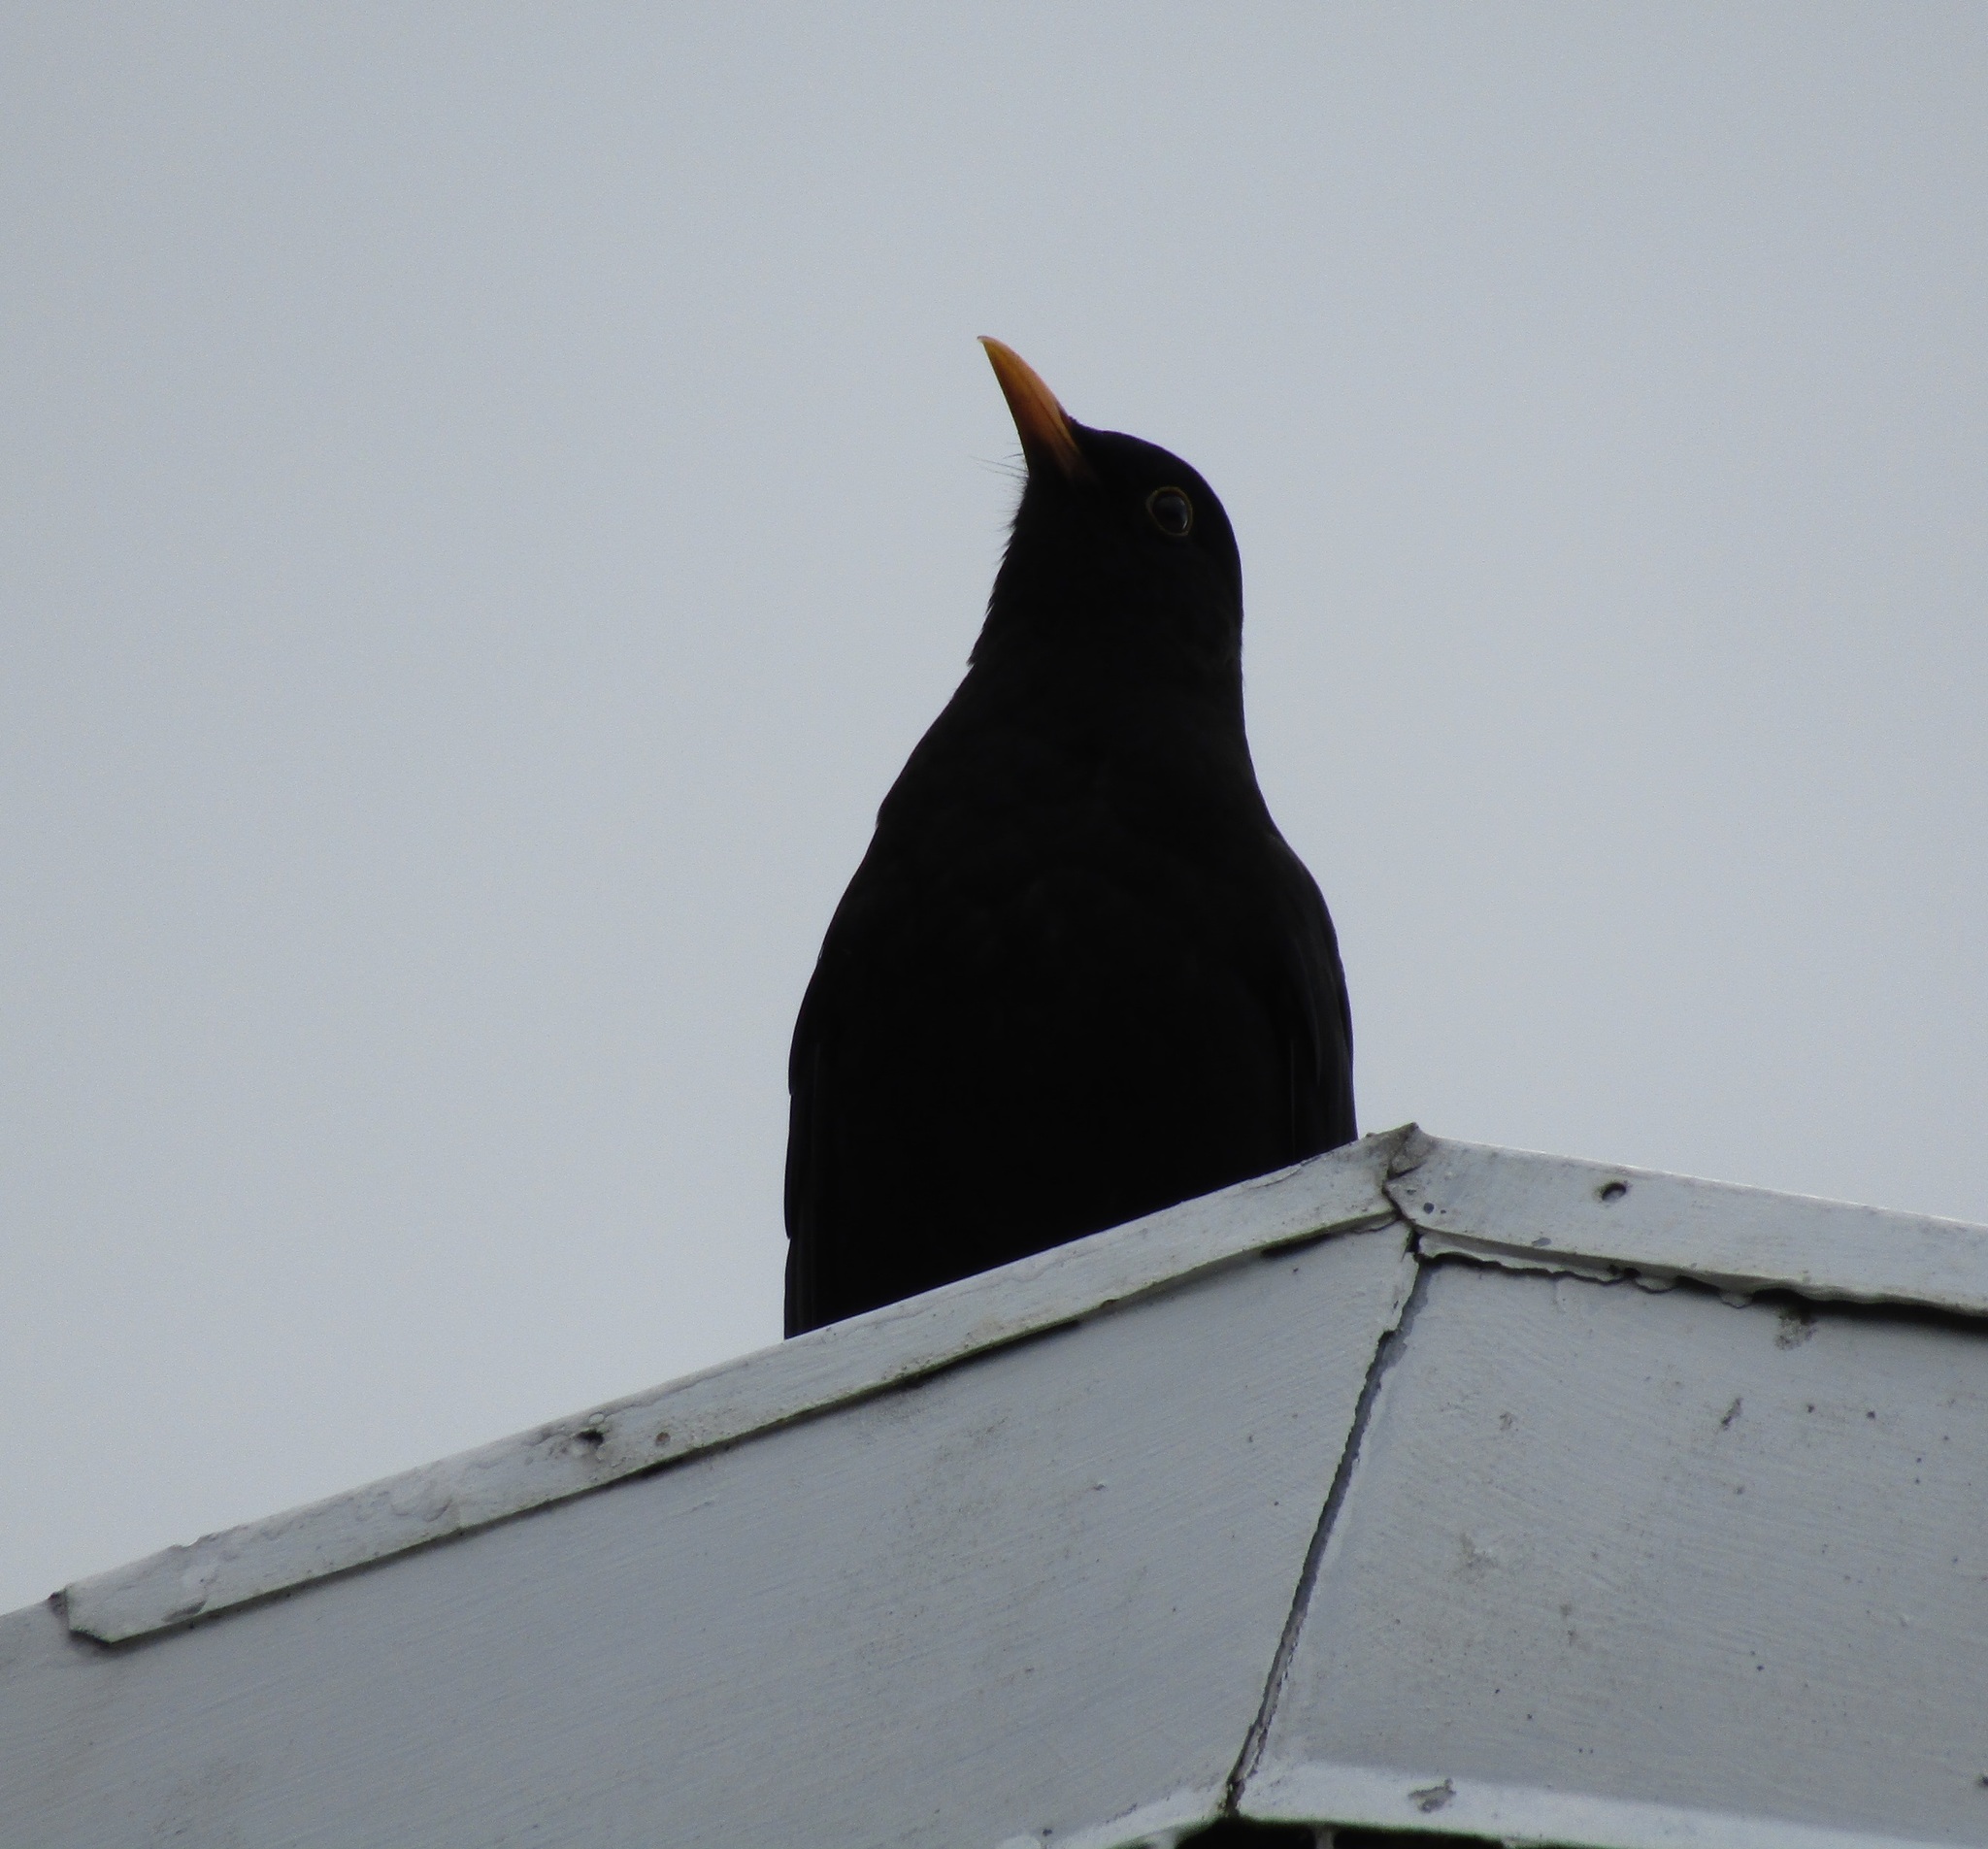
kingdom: Animalia
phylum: Chordata
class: Aves
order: Passeriformes
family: Turdidae
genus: Turdus
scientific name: Turdus merula
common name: Common blackbird
